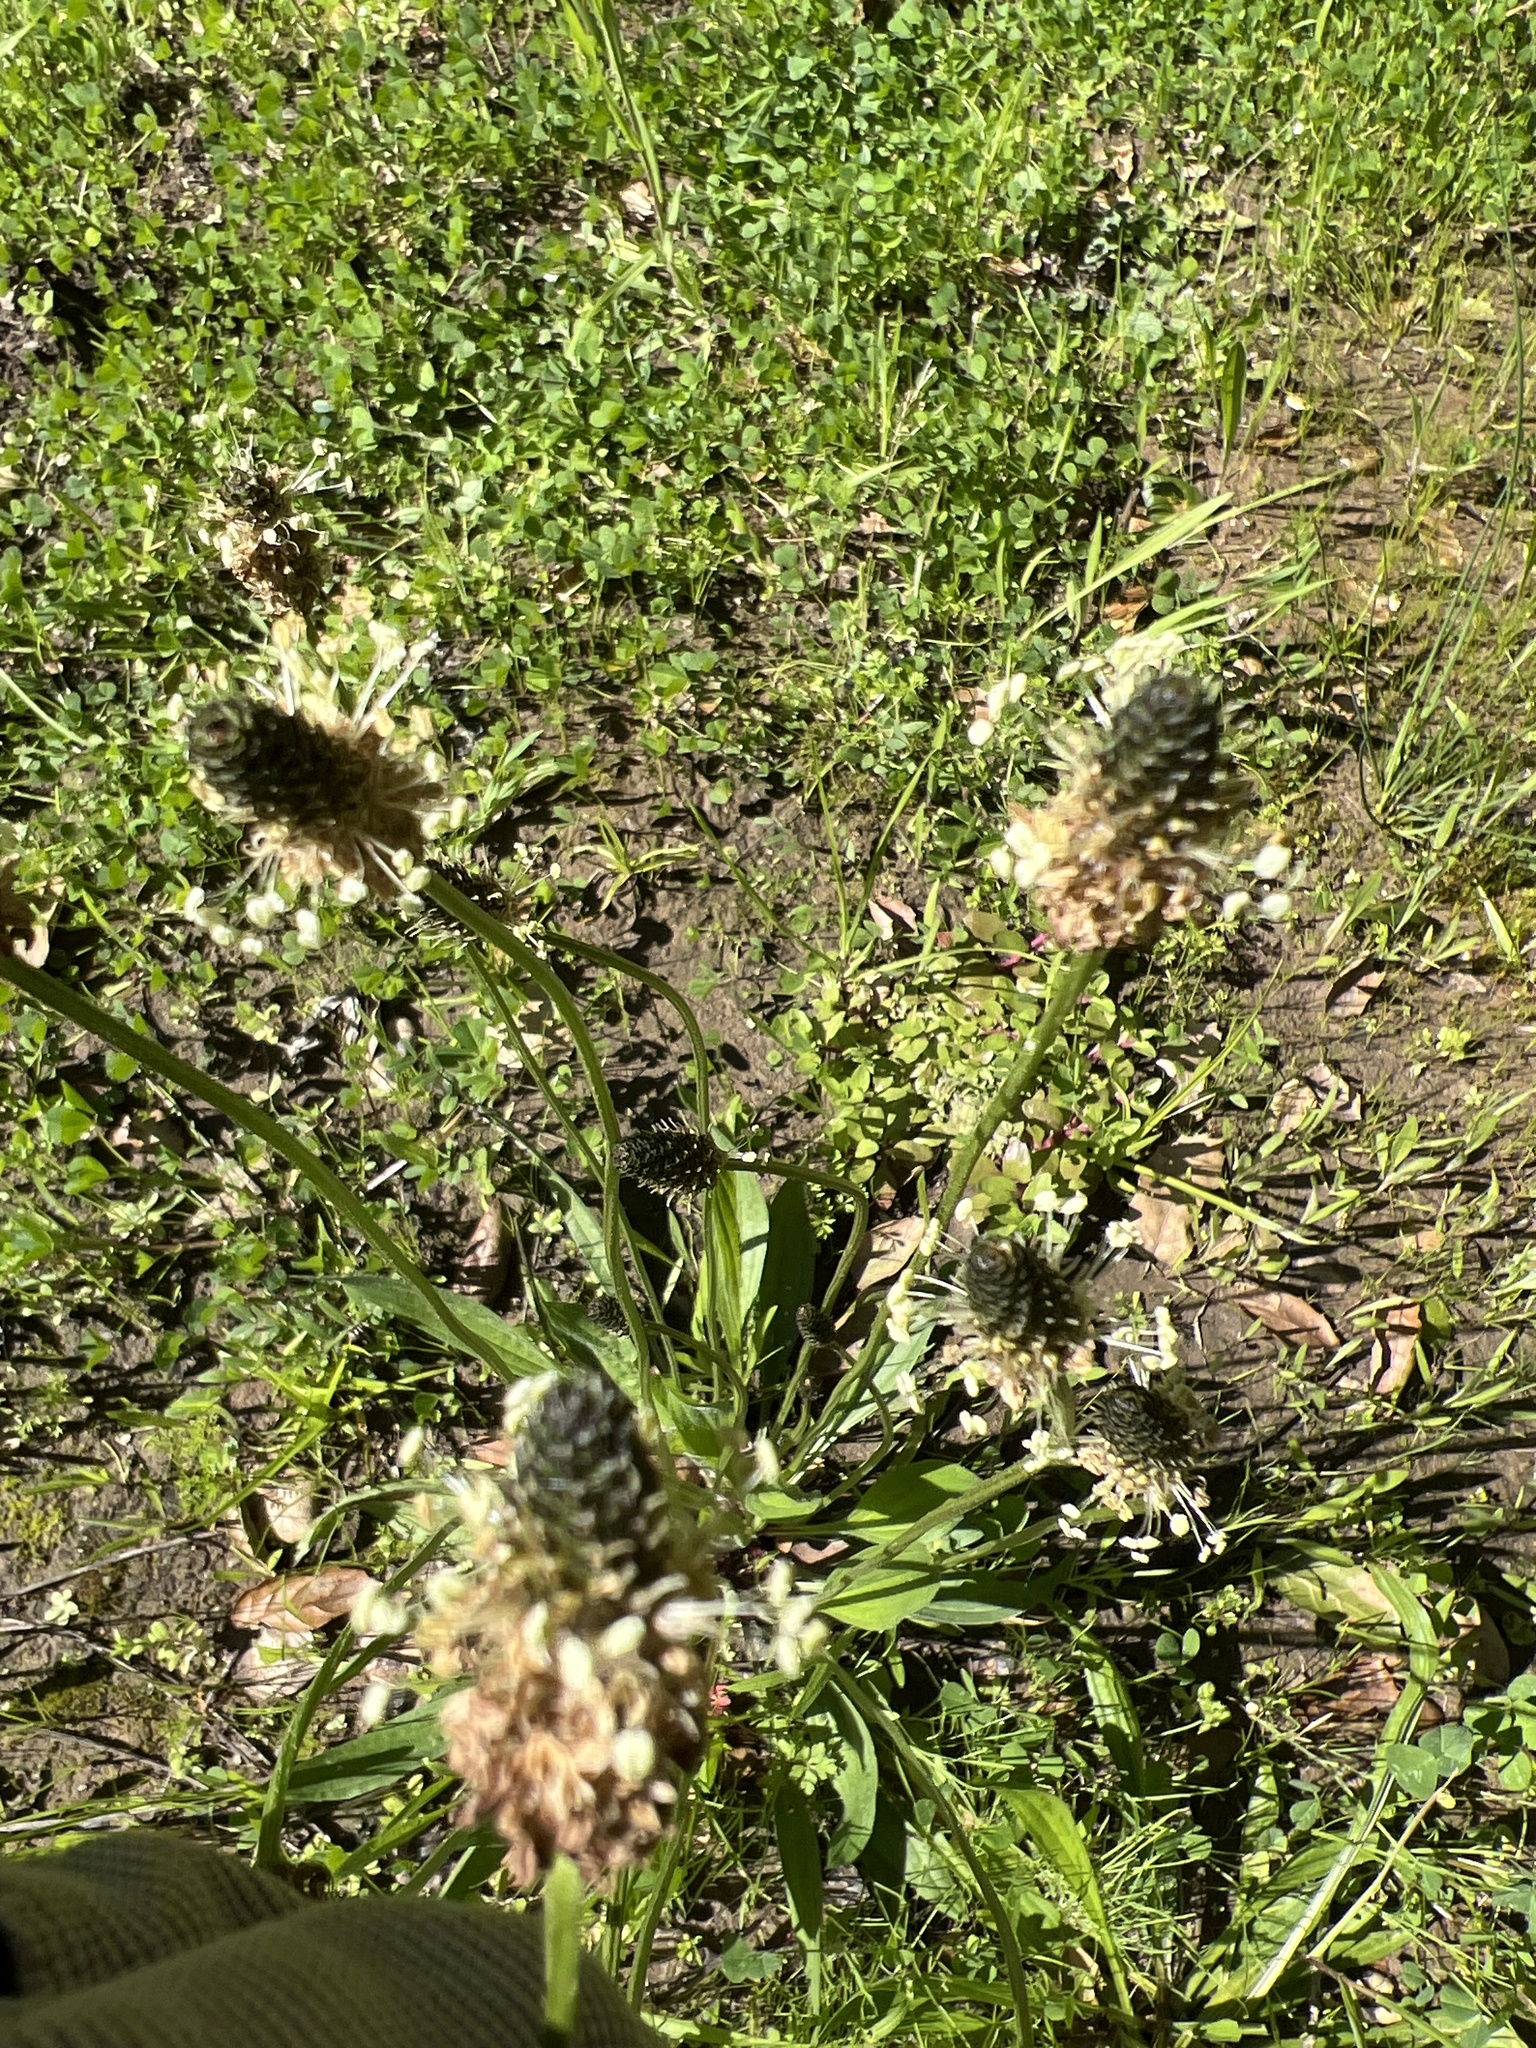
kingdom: Plantae
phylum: Tracheophyta
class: Magnoliopsida
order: Lamiales
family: Plantaginaceae
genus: Plantago
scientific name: Plantago lanceolata
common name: Ribwort plantain
